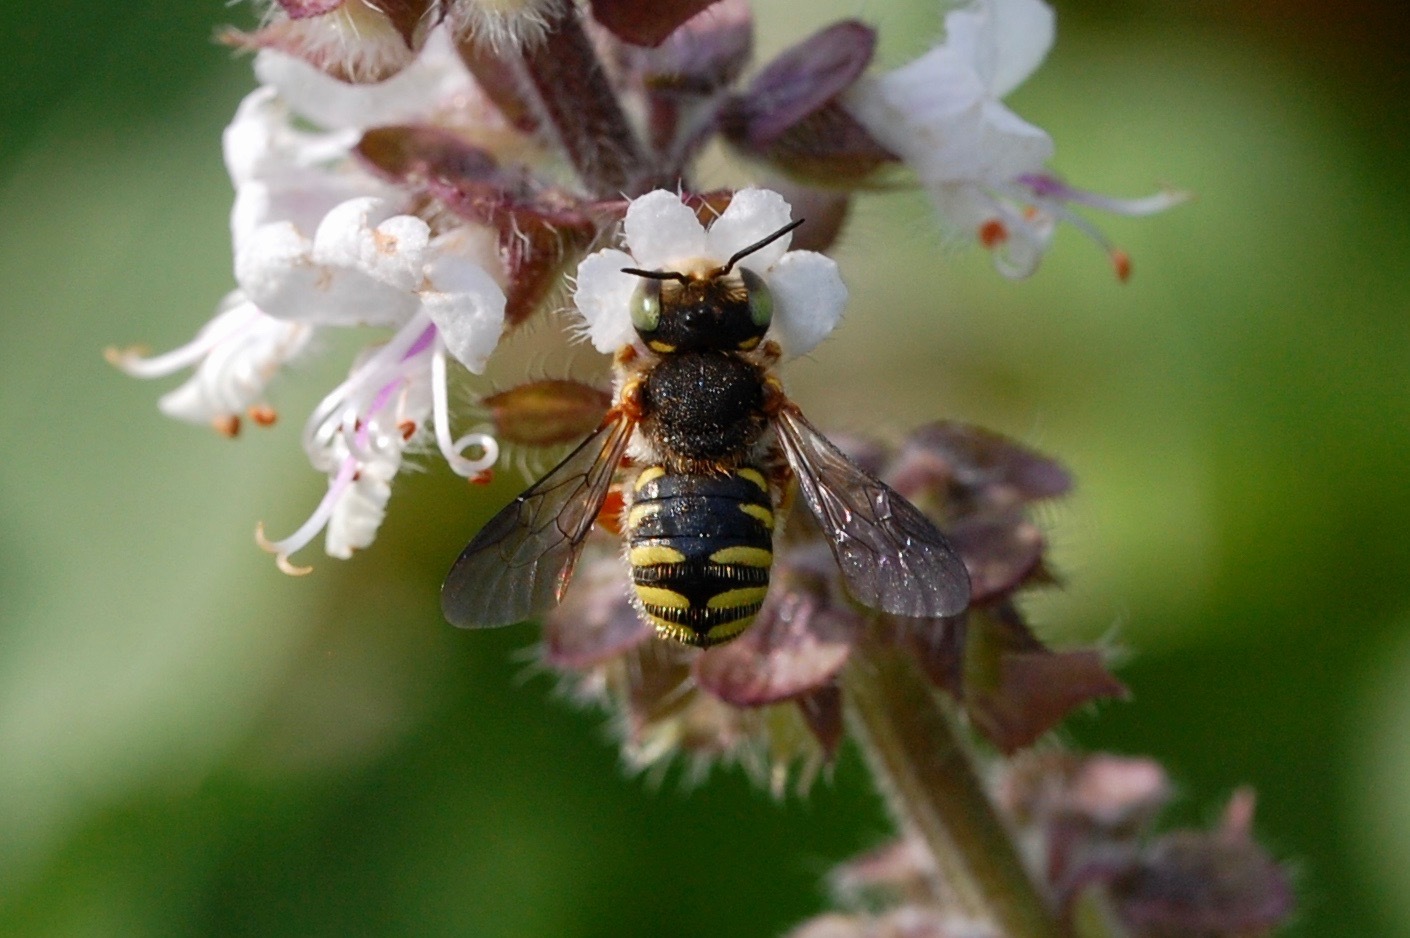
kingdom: Animalia
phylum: Arthropoda
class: Insecta
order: Hymenoptera
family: Megachilidae
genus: Anthidium
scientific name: Anthidium oblongatum
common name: Oblong wool carder bee
